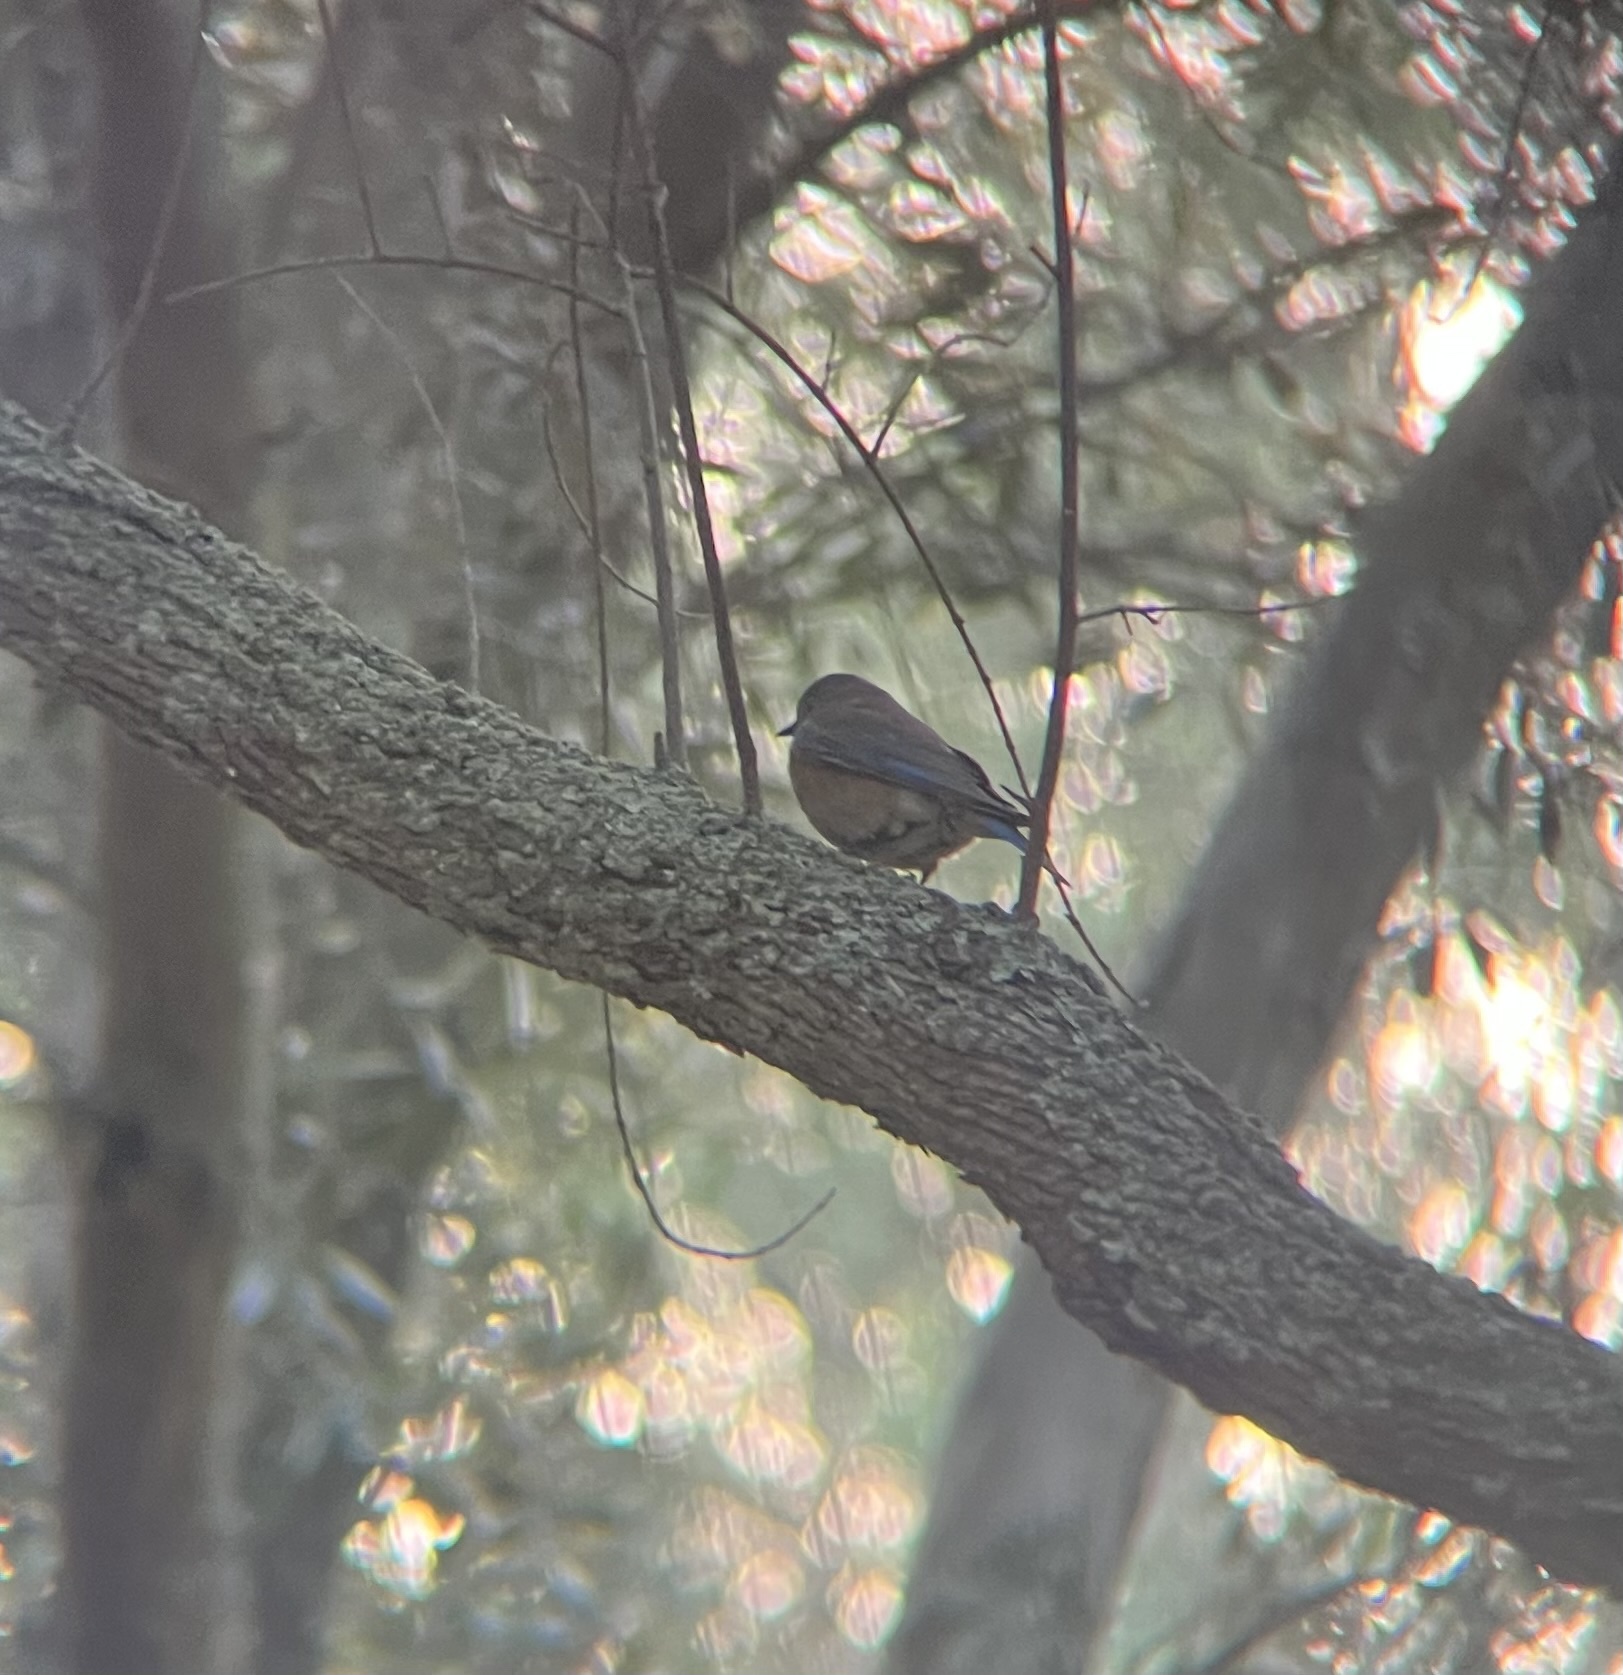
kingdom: Animalia
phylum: Chordata
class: Aves
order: Passeriformes
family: Turdidae
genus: Sialia
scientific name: Sialia mexicana
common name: Western bluebird
